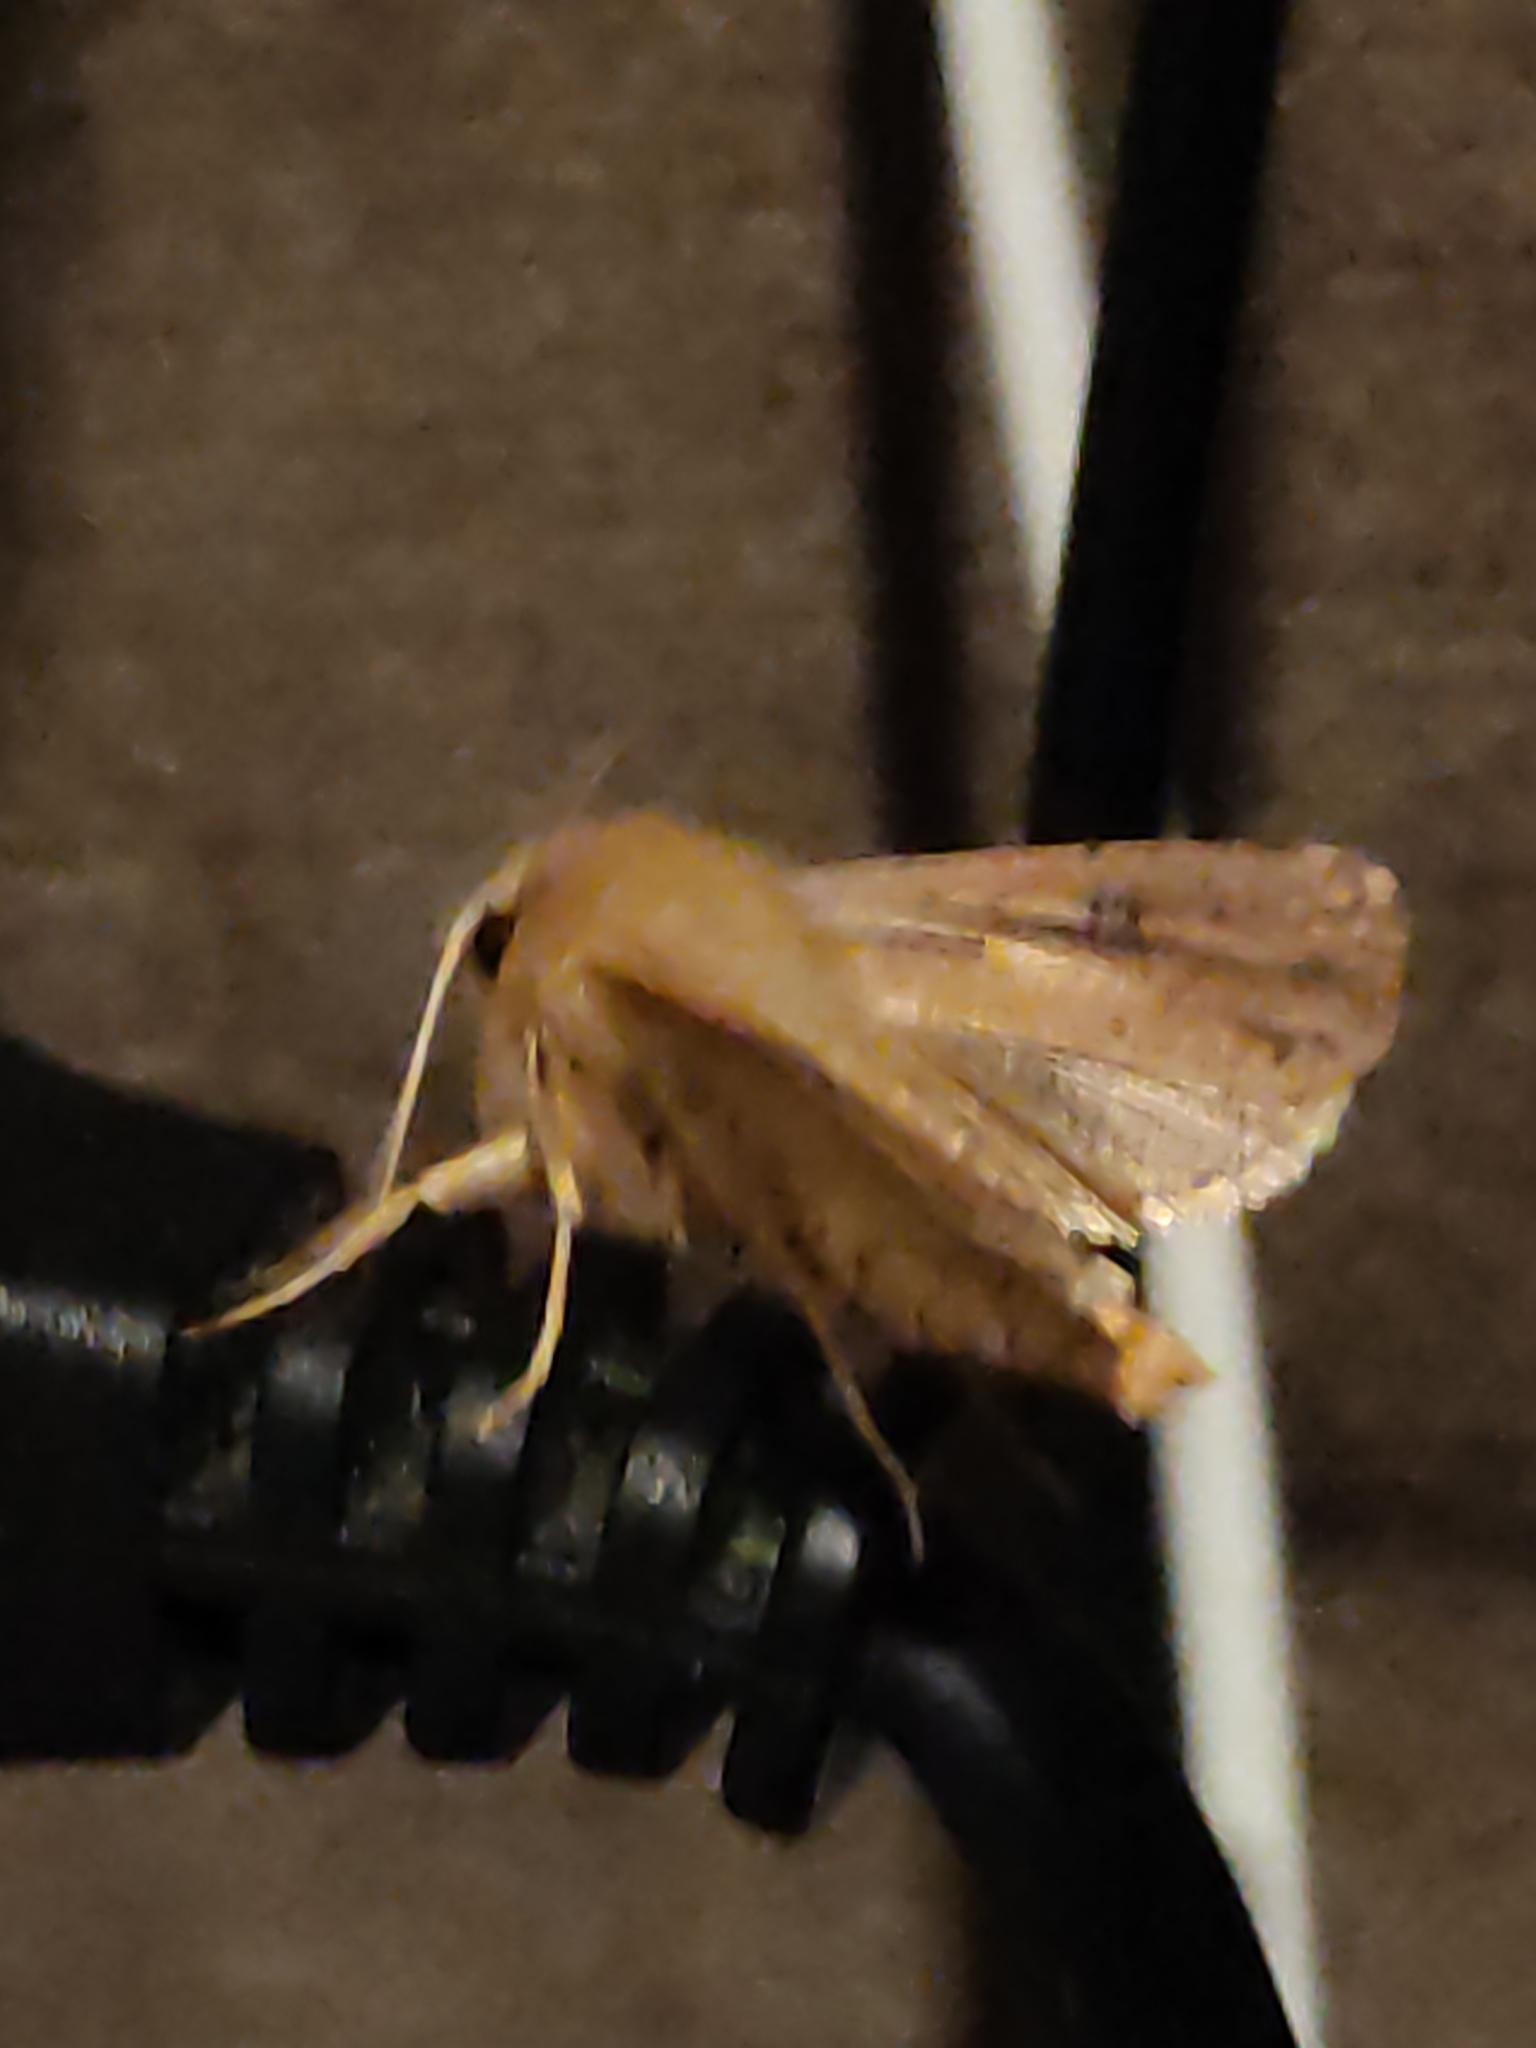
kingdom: Animalia
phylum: Arthropoda
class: Insecta
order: Lepidoptera
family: Noctuidae
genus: Ichneutica
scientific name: Ichneutica propria
